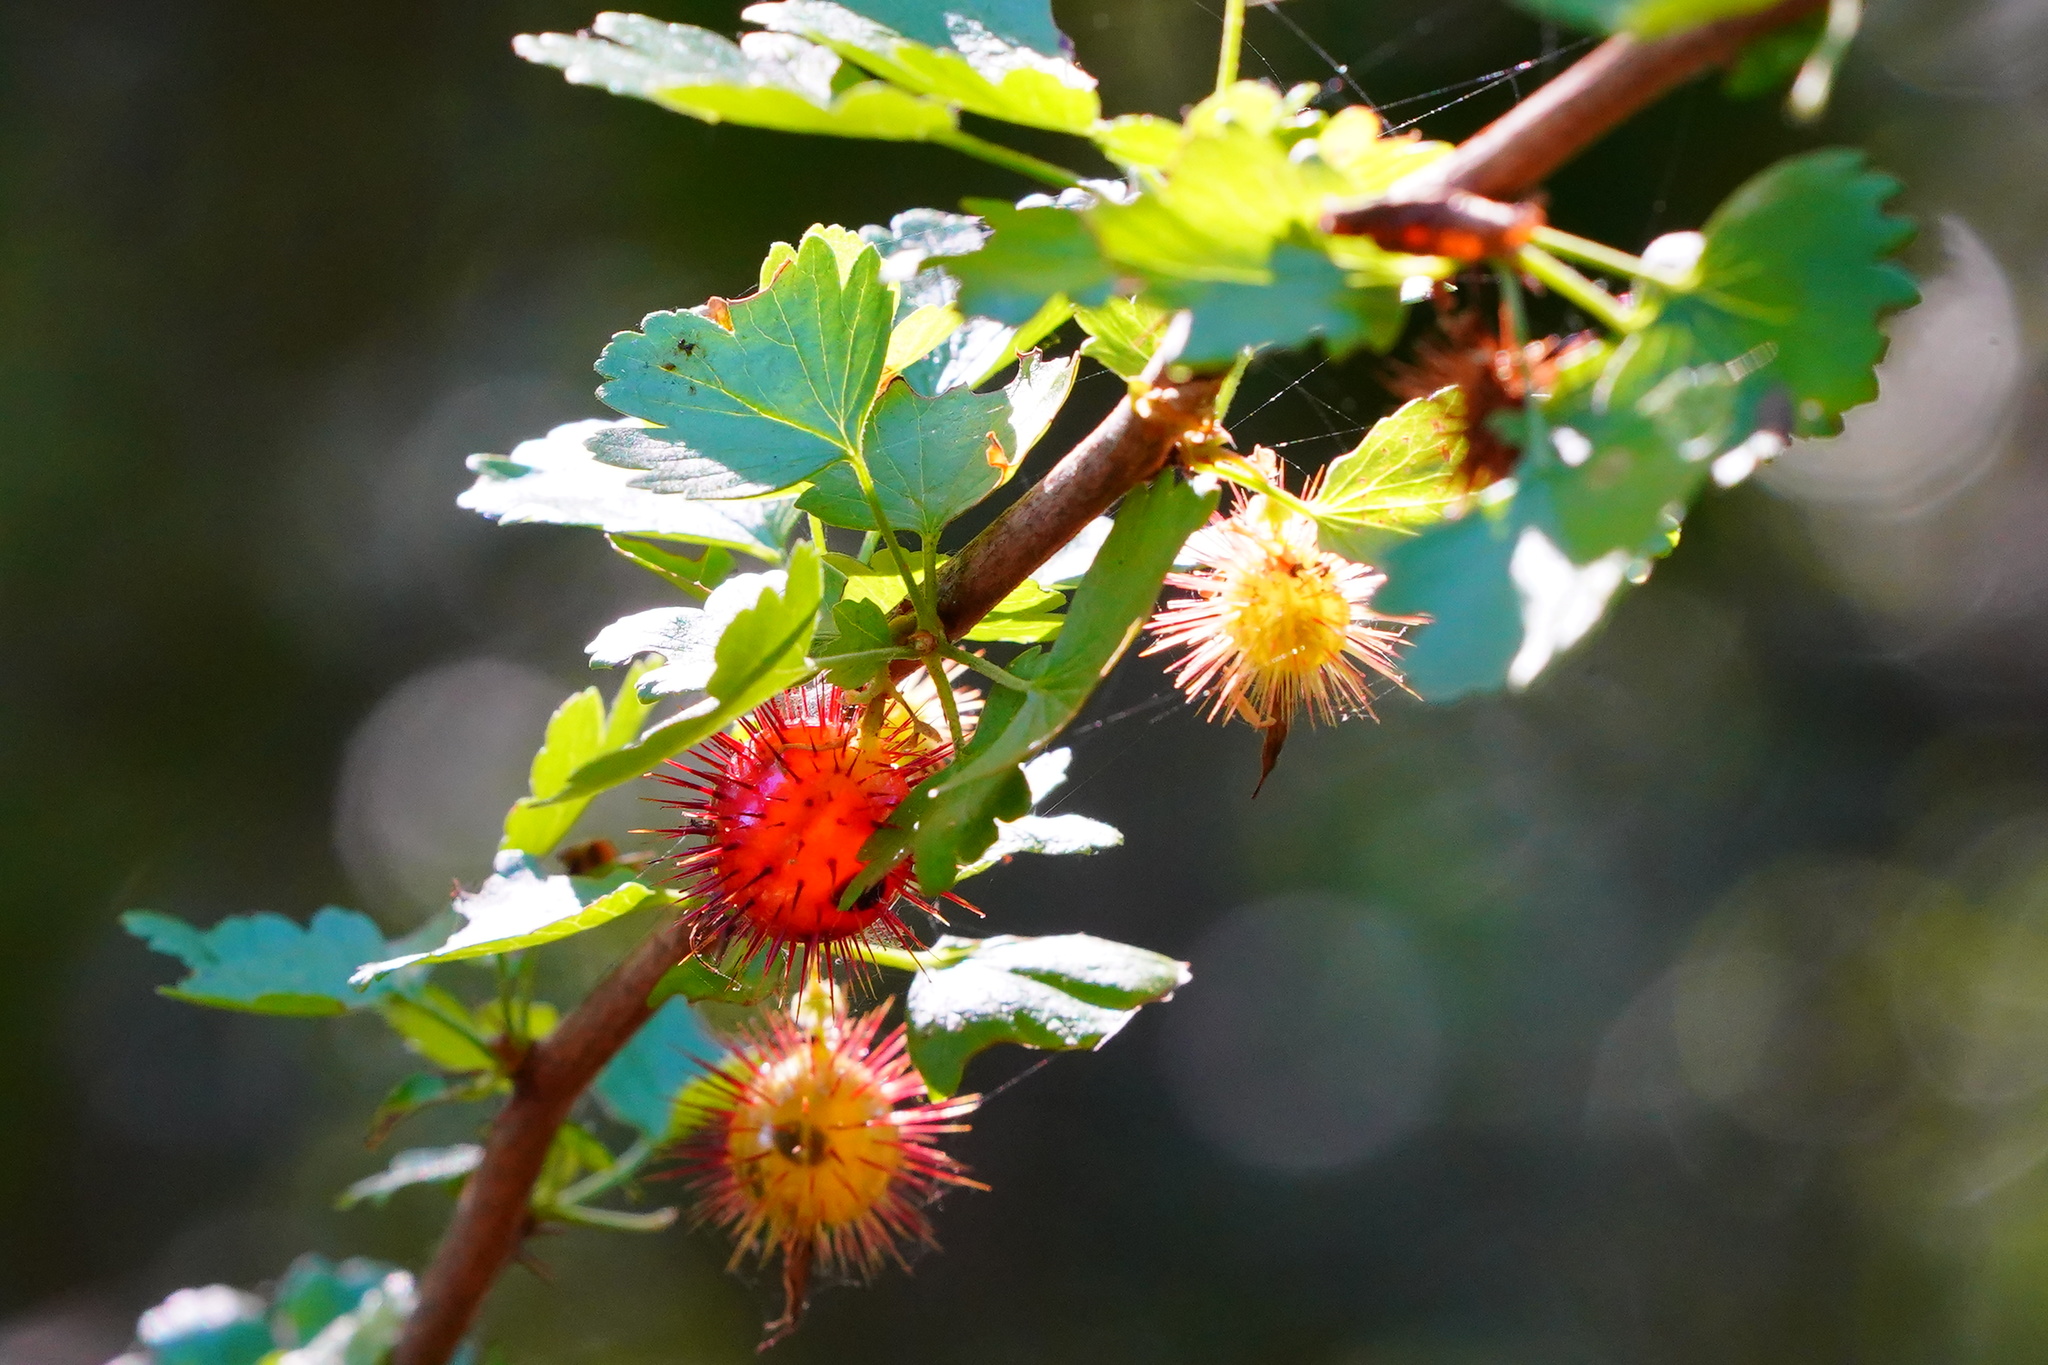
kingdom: Plantae
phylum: Tracheophyta
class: Magnoliopsida
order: Saxifragales
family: Grossulariaceae
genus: Ribes
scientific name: Ribes californicum
